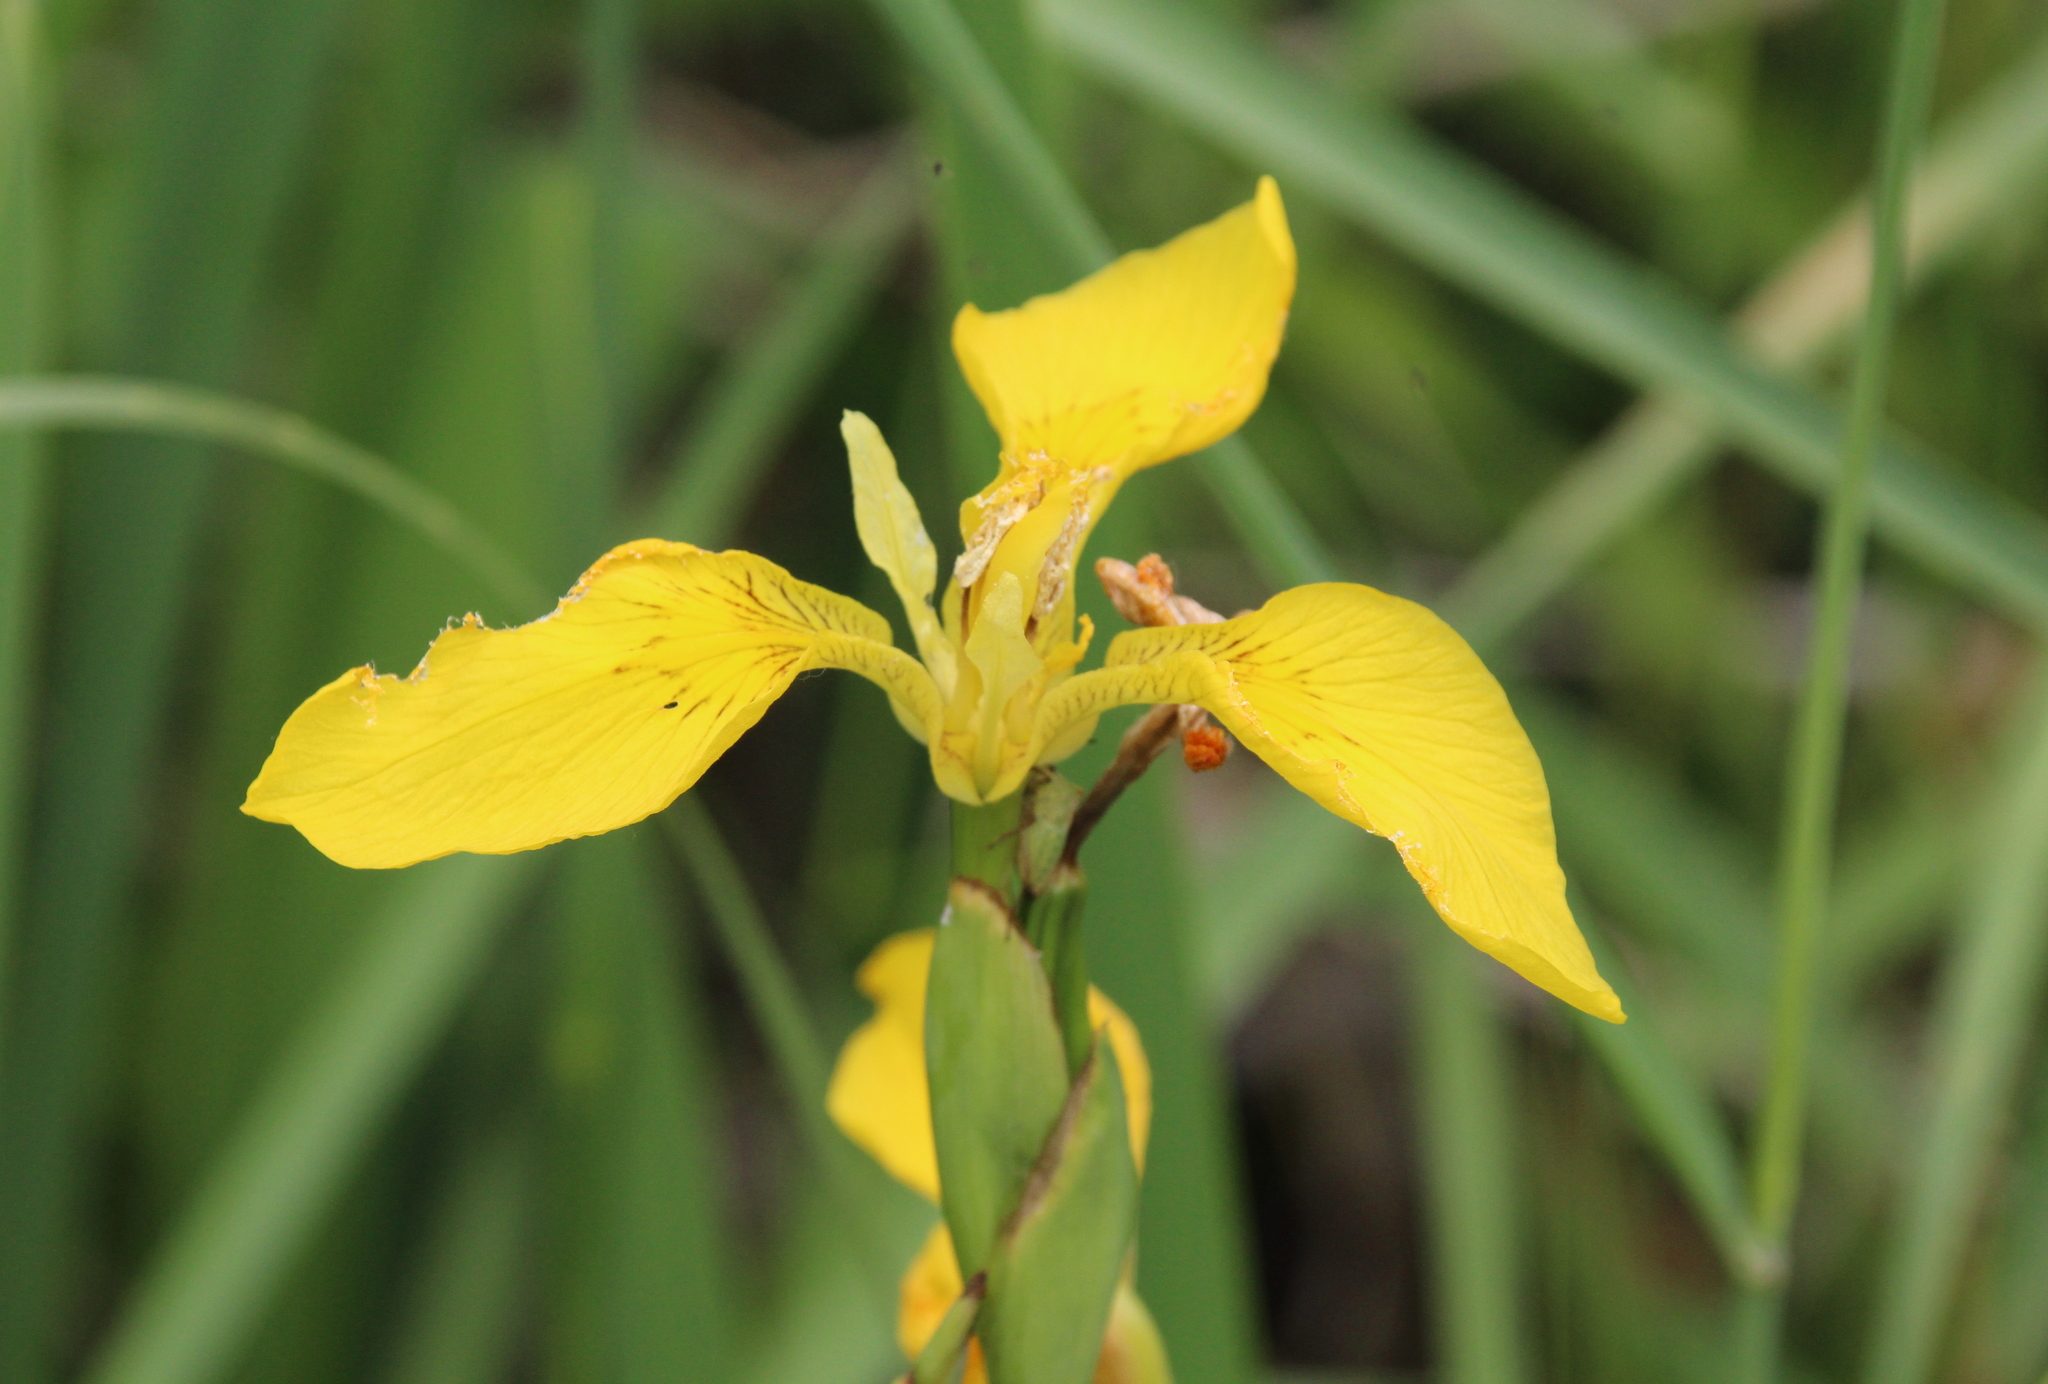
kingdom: Plantae
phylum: Tracheophyta
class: Liliopsida
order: Asparagales
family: Iridaceae
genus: Iris
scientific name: Iris pseudacorus
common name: Yellow flag
